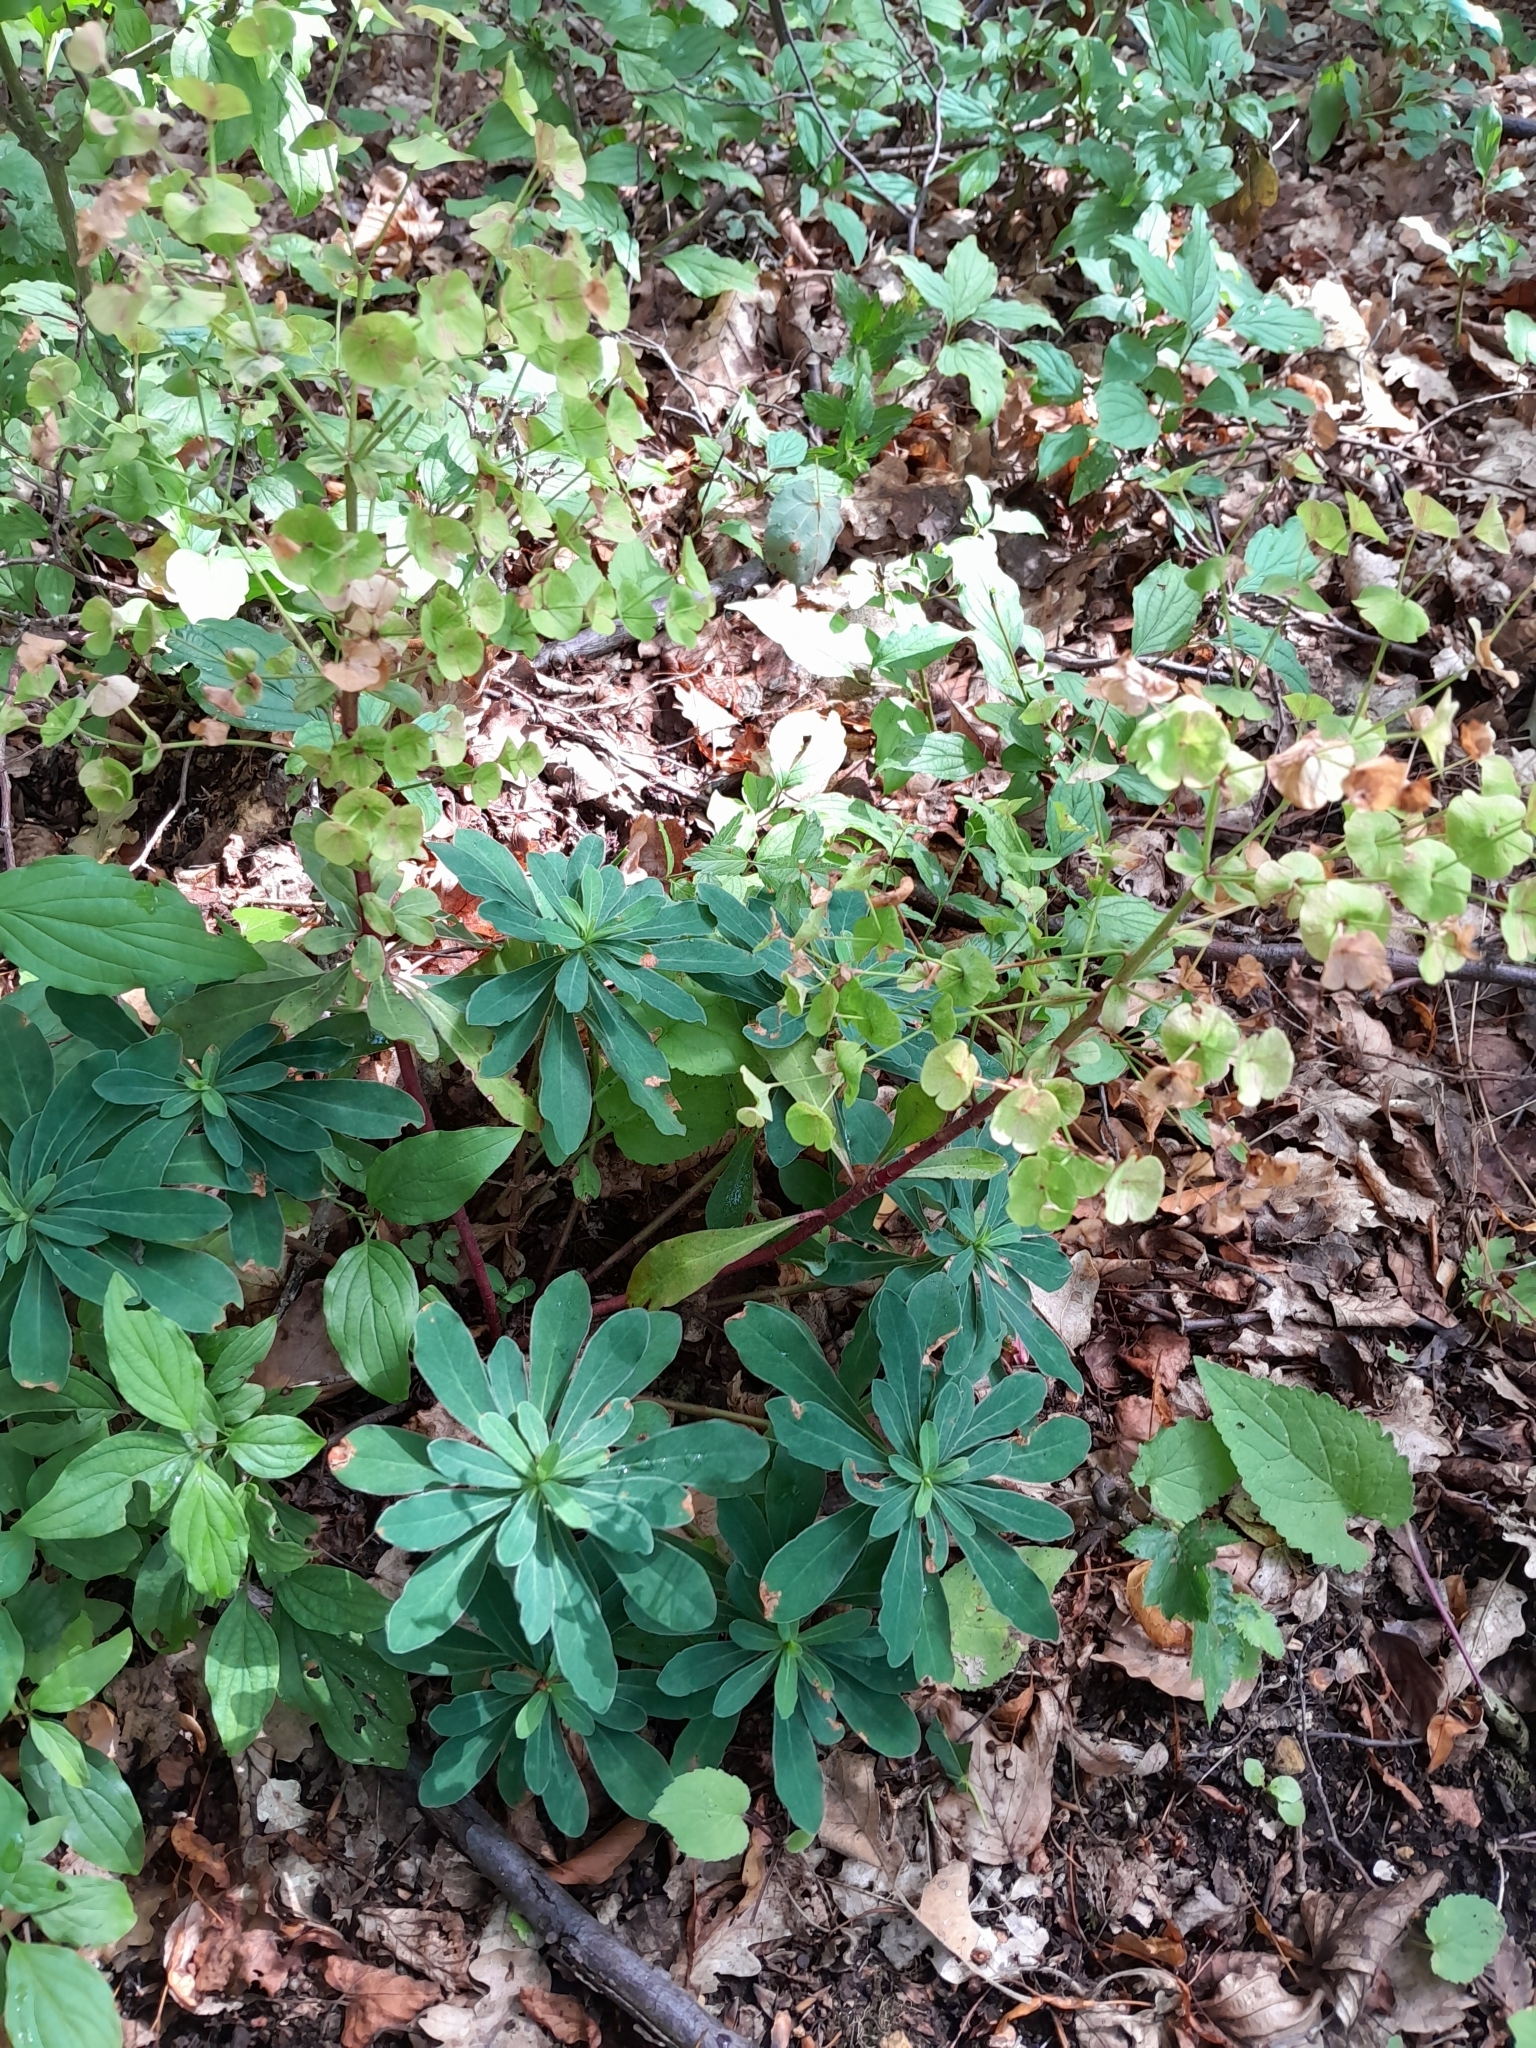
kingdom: Plantae
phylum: Tracheophyta
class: Magnoliopsida
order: Malpighiales
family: Euphorbiaceae
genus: Euphorbia
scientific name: Euphorbia amygdaloides
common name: Wood spurge
